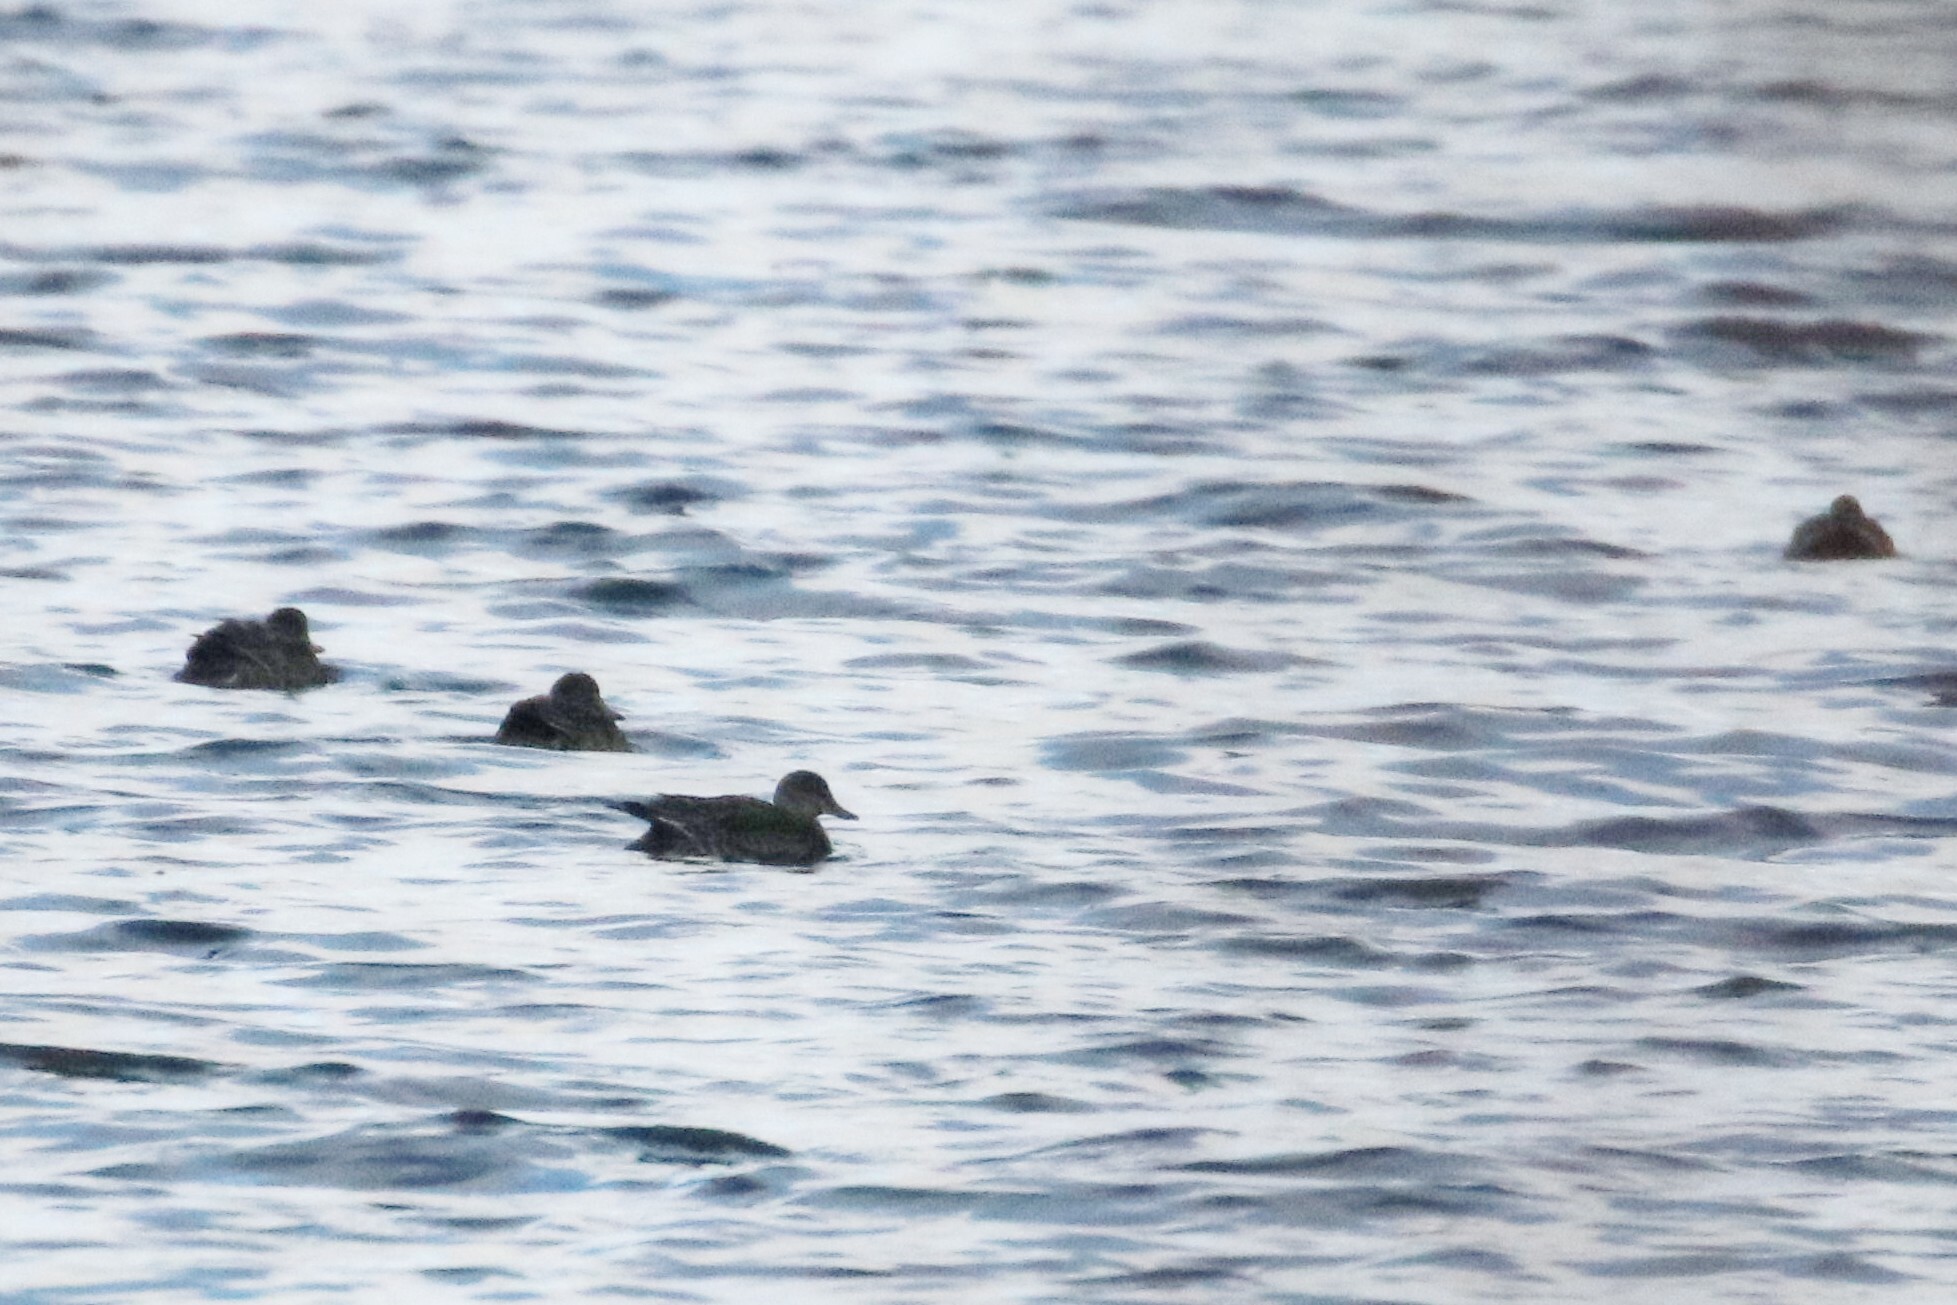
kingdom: Animalia
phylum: Chordata
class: Aves
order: Anseriformes
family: Anatidae
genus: Anas
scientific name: Anas crecca
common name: Eurasian teal
